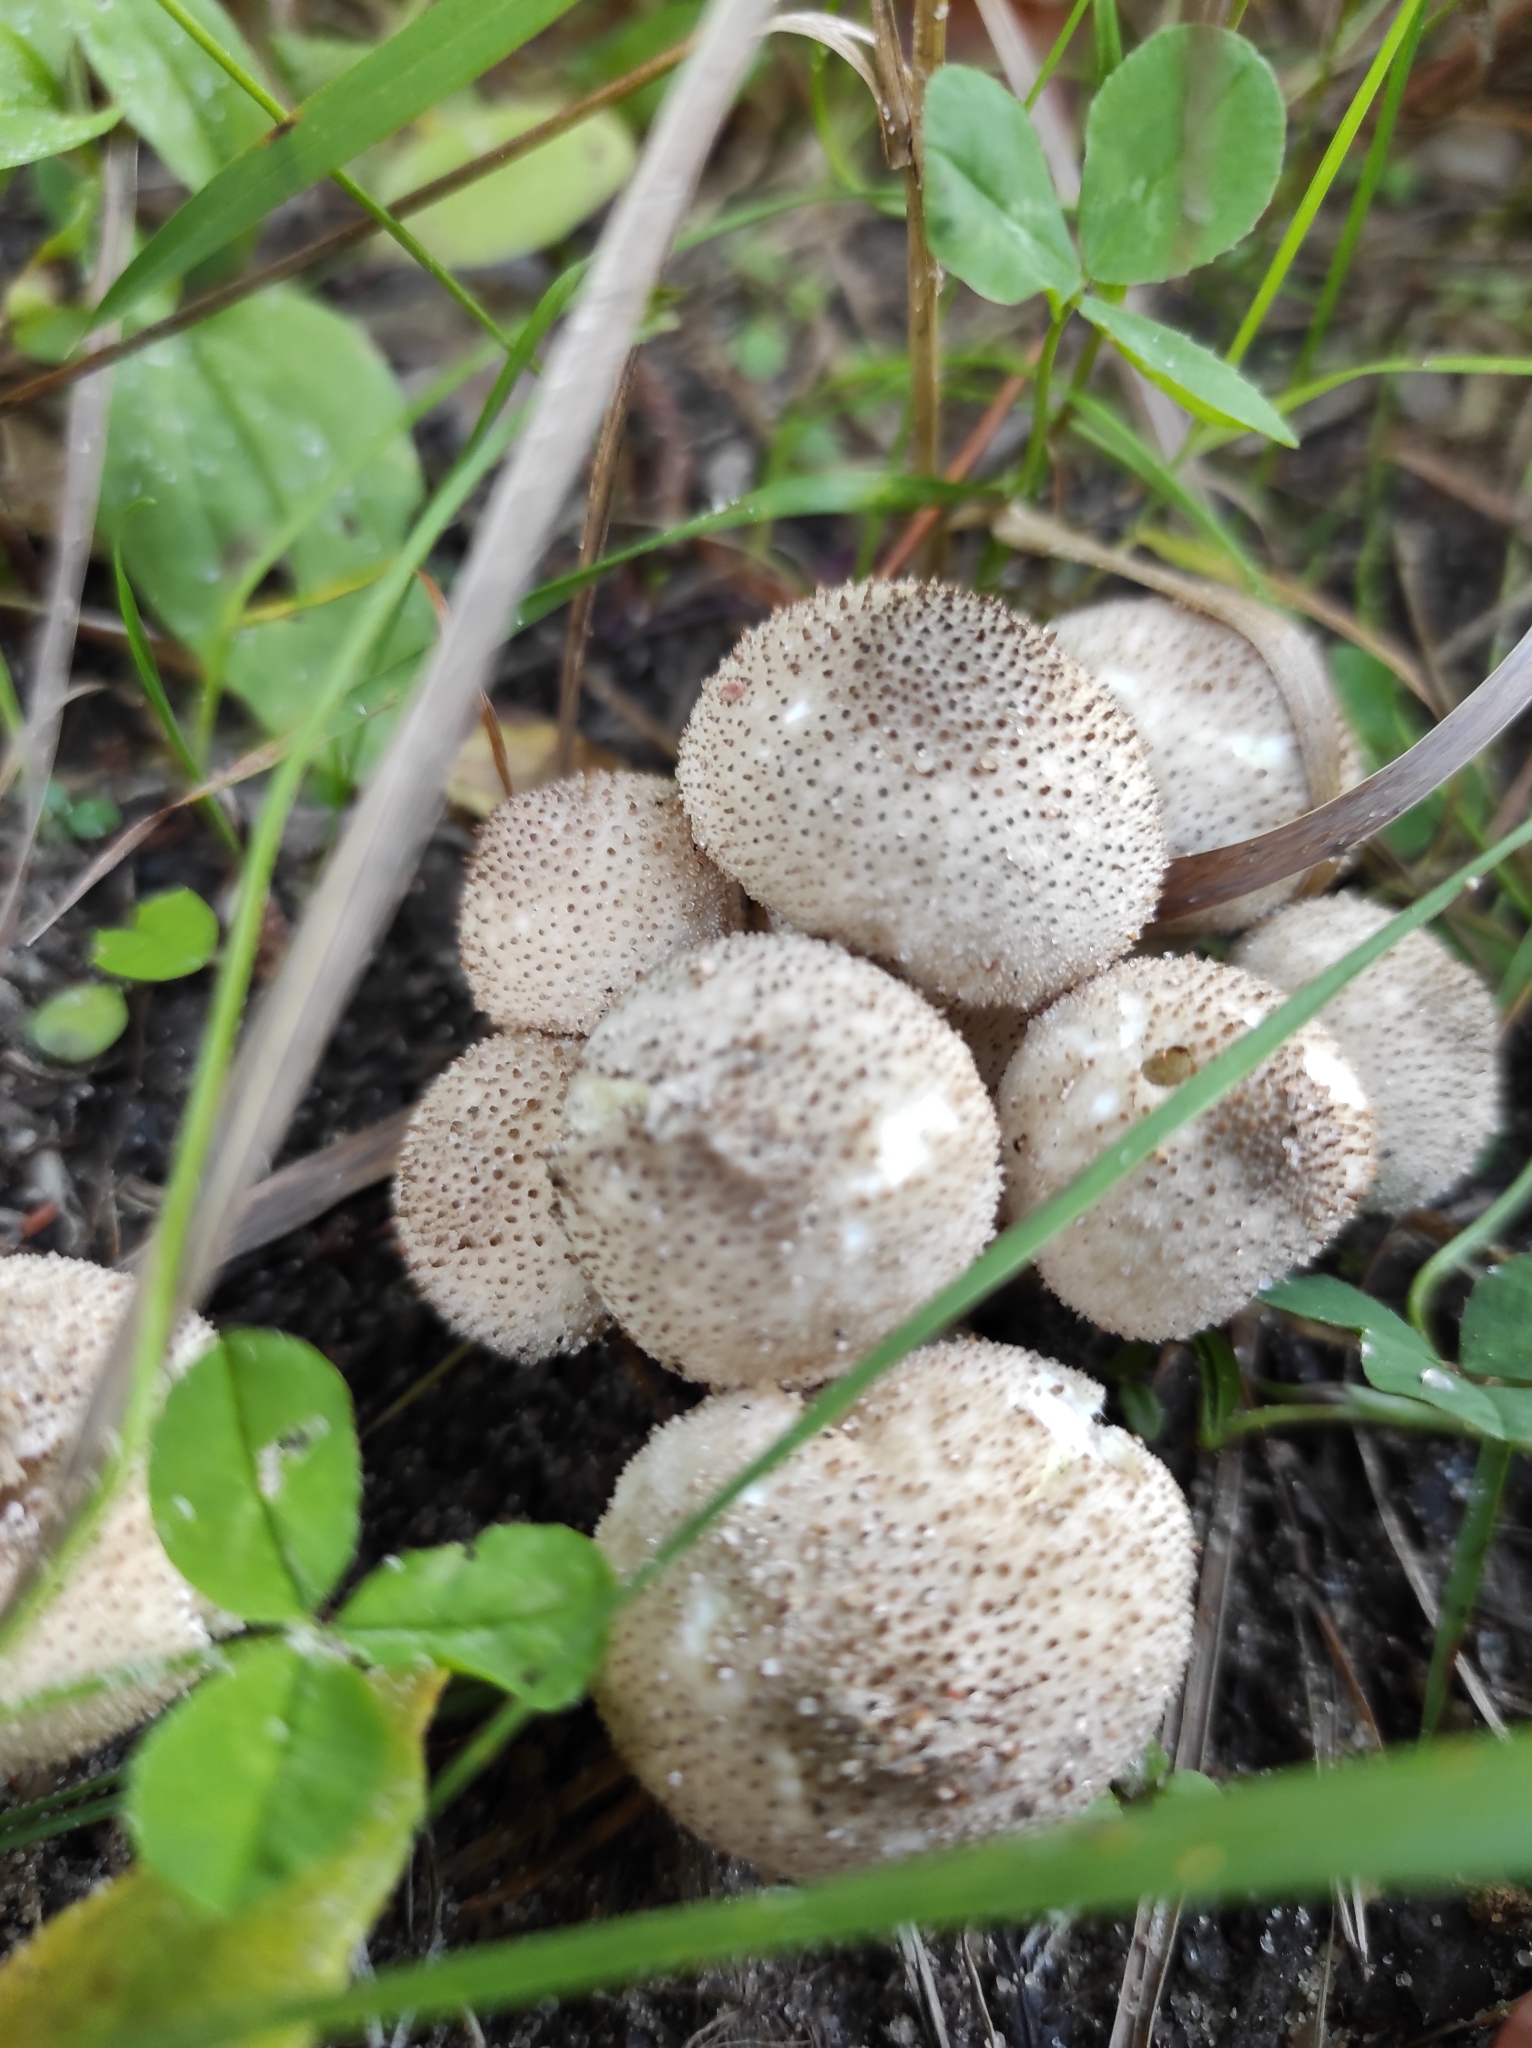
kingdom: Fungi
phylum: Basidiomycota
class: Agaricomycetes
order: Agaricales
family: Lycoperdaceae
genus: Lycoperdon
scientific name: Lycoperdon perlatum
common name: Common puffball
